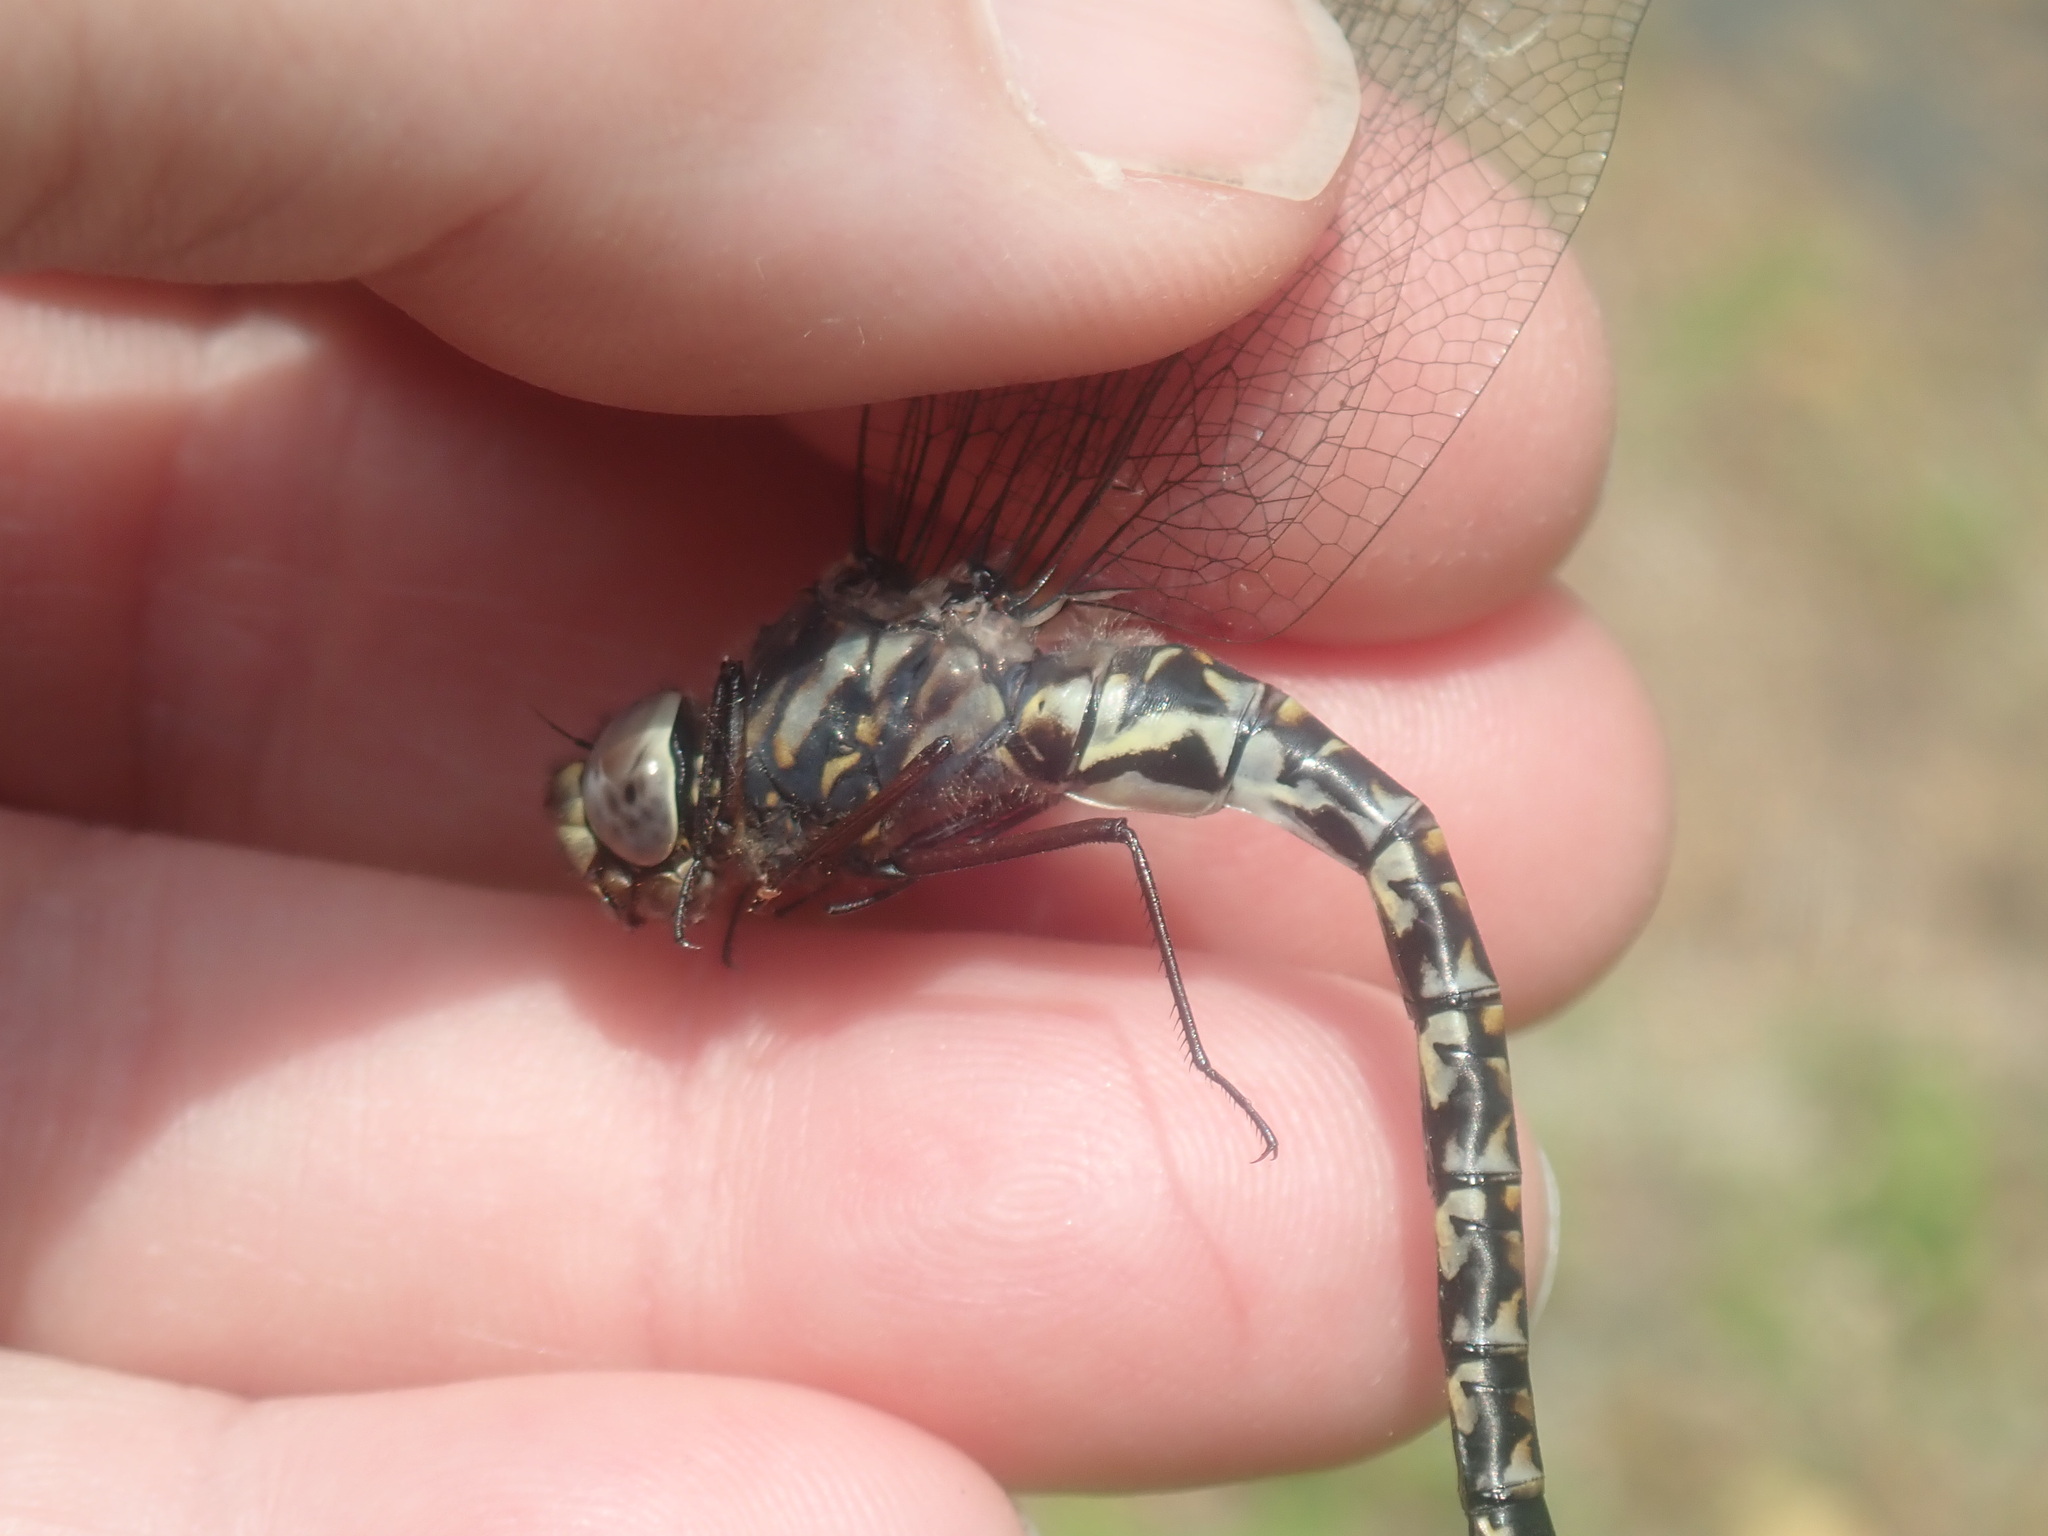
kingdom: Animalia
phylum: Arthropoda
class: Insecta
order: Odonata
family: Aeshnidae
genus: Gomphaeschna
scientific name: Gomphaeschna furcillata
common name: Harlequin darner
